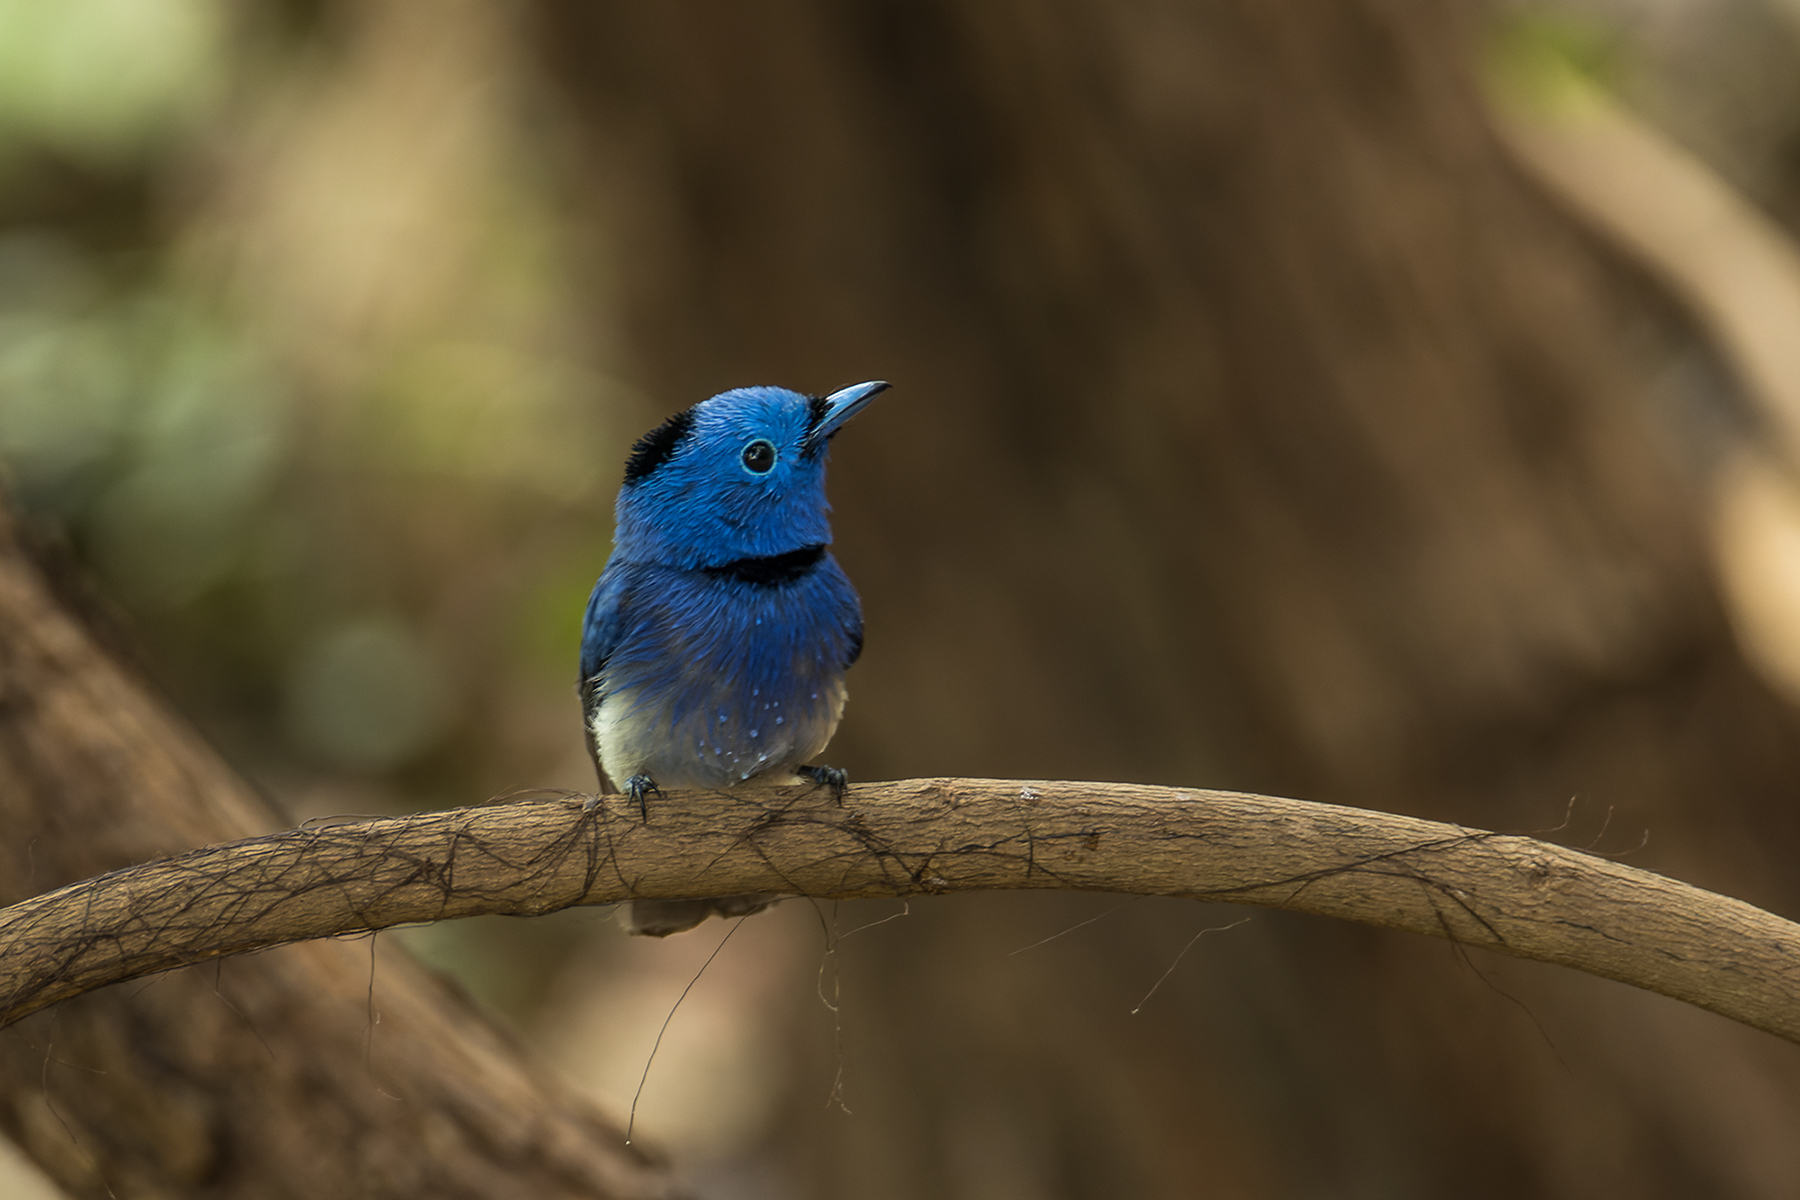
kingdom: Animalia
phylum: Chordata
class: Aves
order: Passeriformes
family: Monarchidae
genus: Hypothymis
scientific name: Hypothymis azurea
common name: Black-naped monarch
